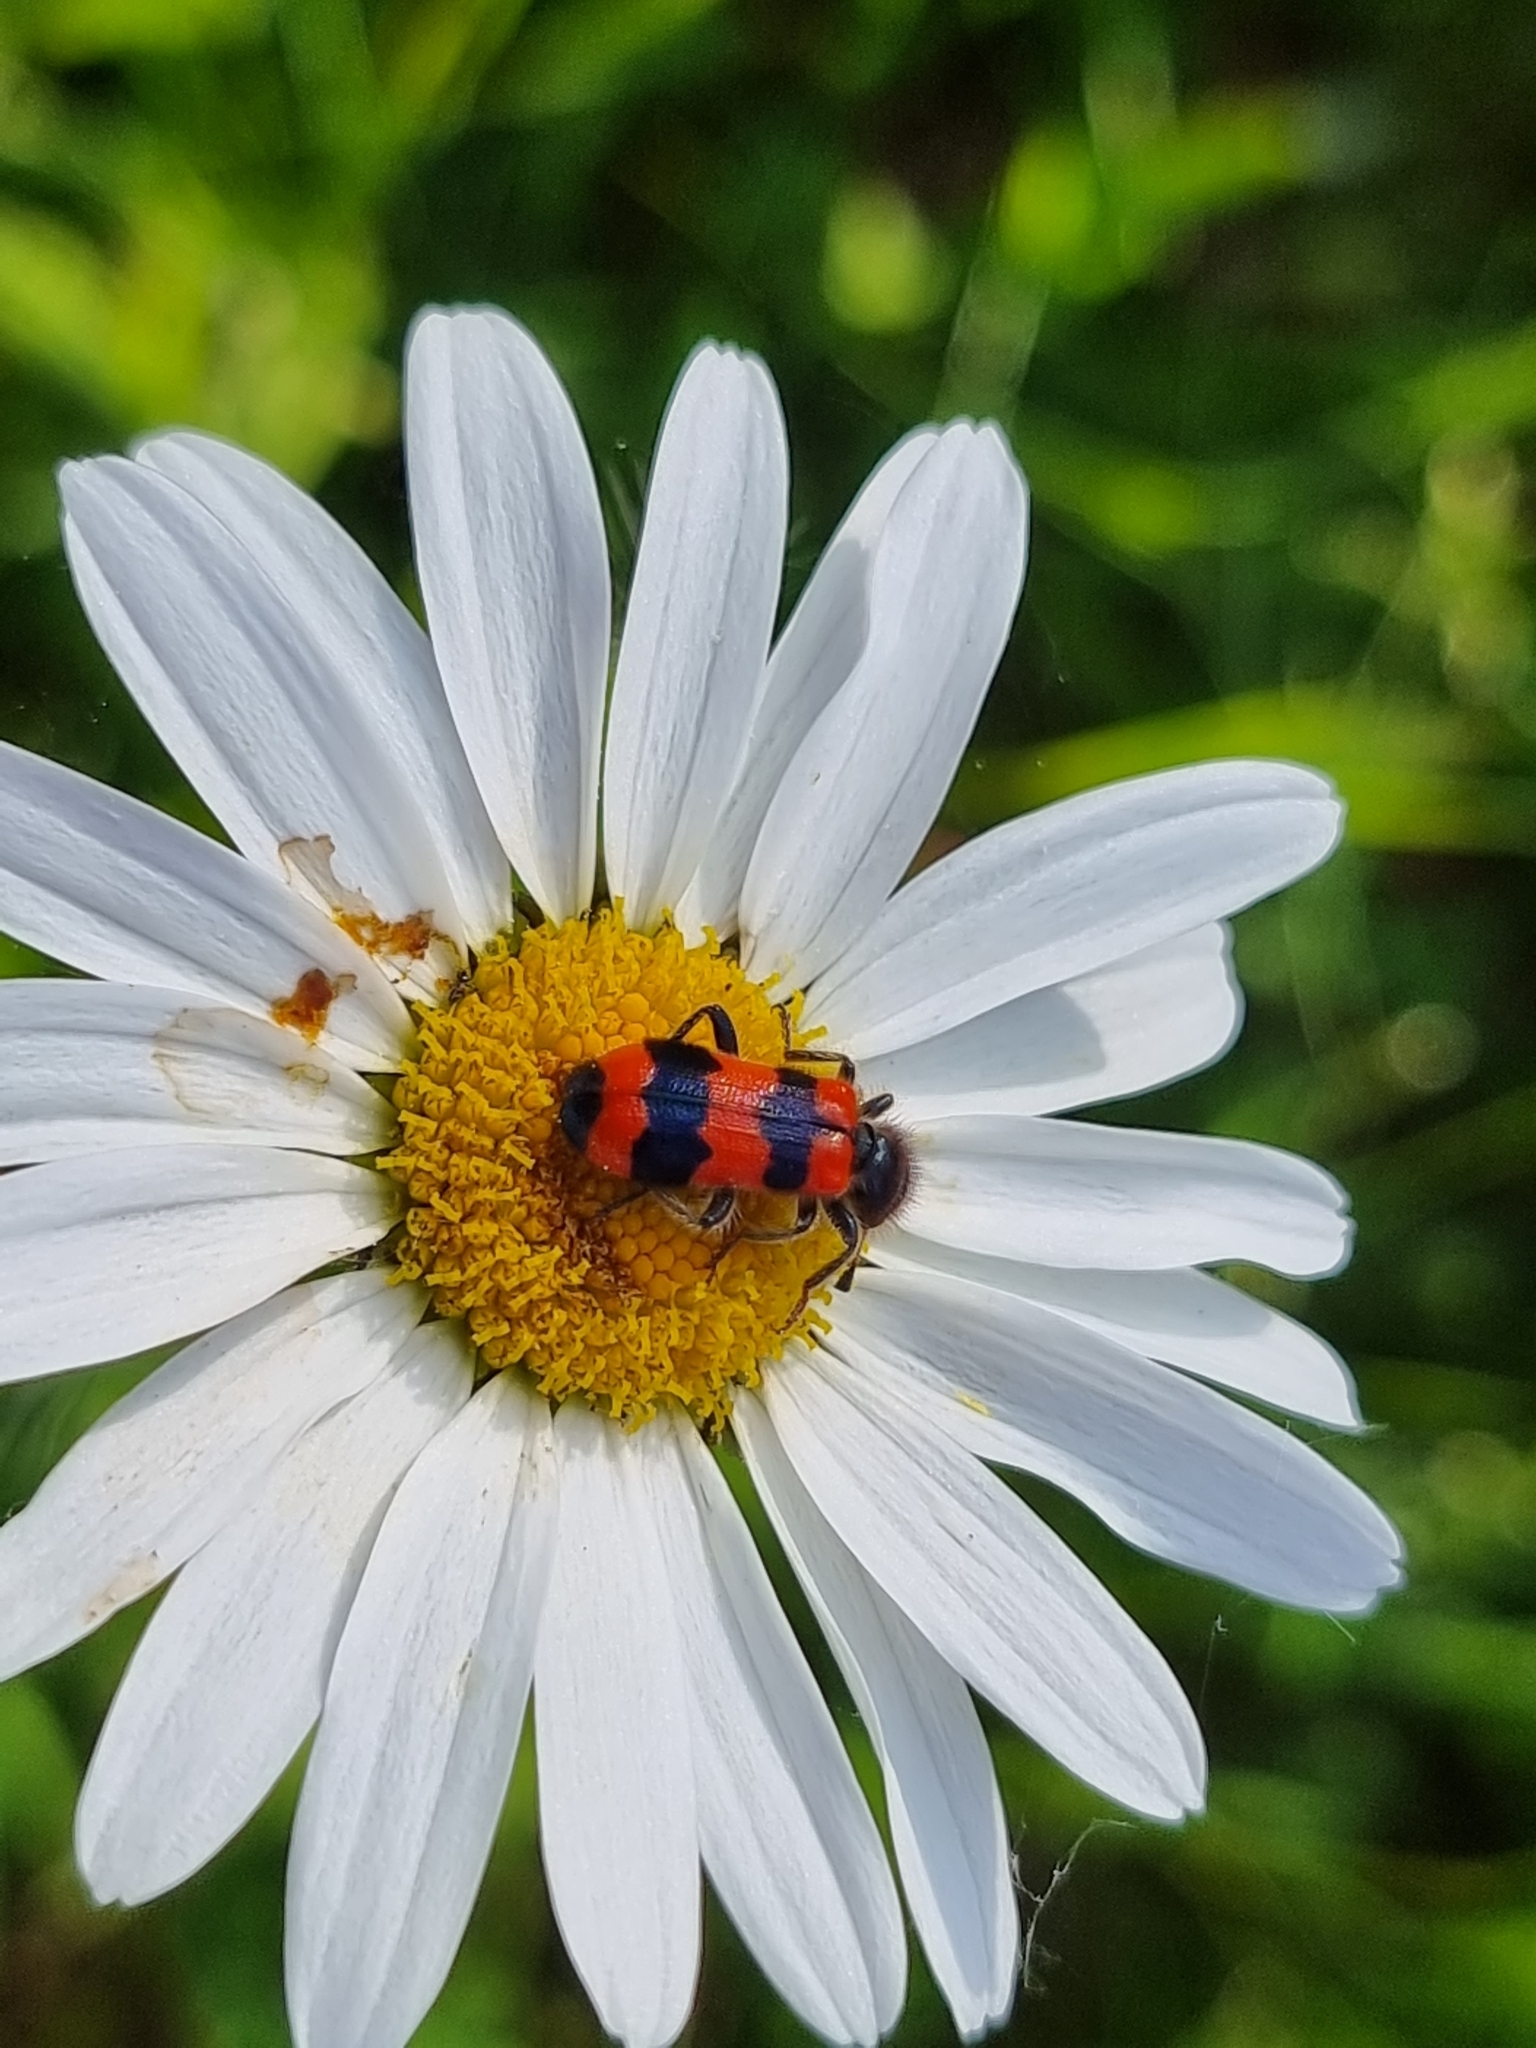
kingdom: Animalia
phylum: Arthropoda
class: Insecta
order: Coleoptera
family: Cleridae
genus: Trichodes
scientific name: Trichodes apiarius
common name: Bee-eating beetle
